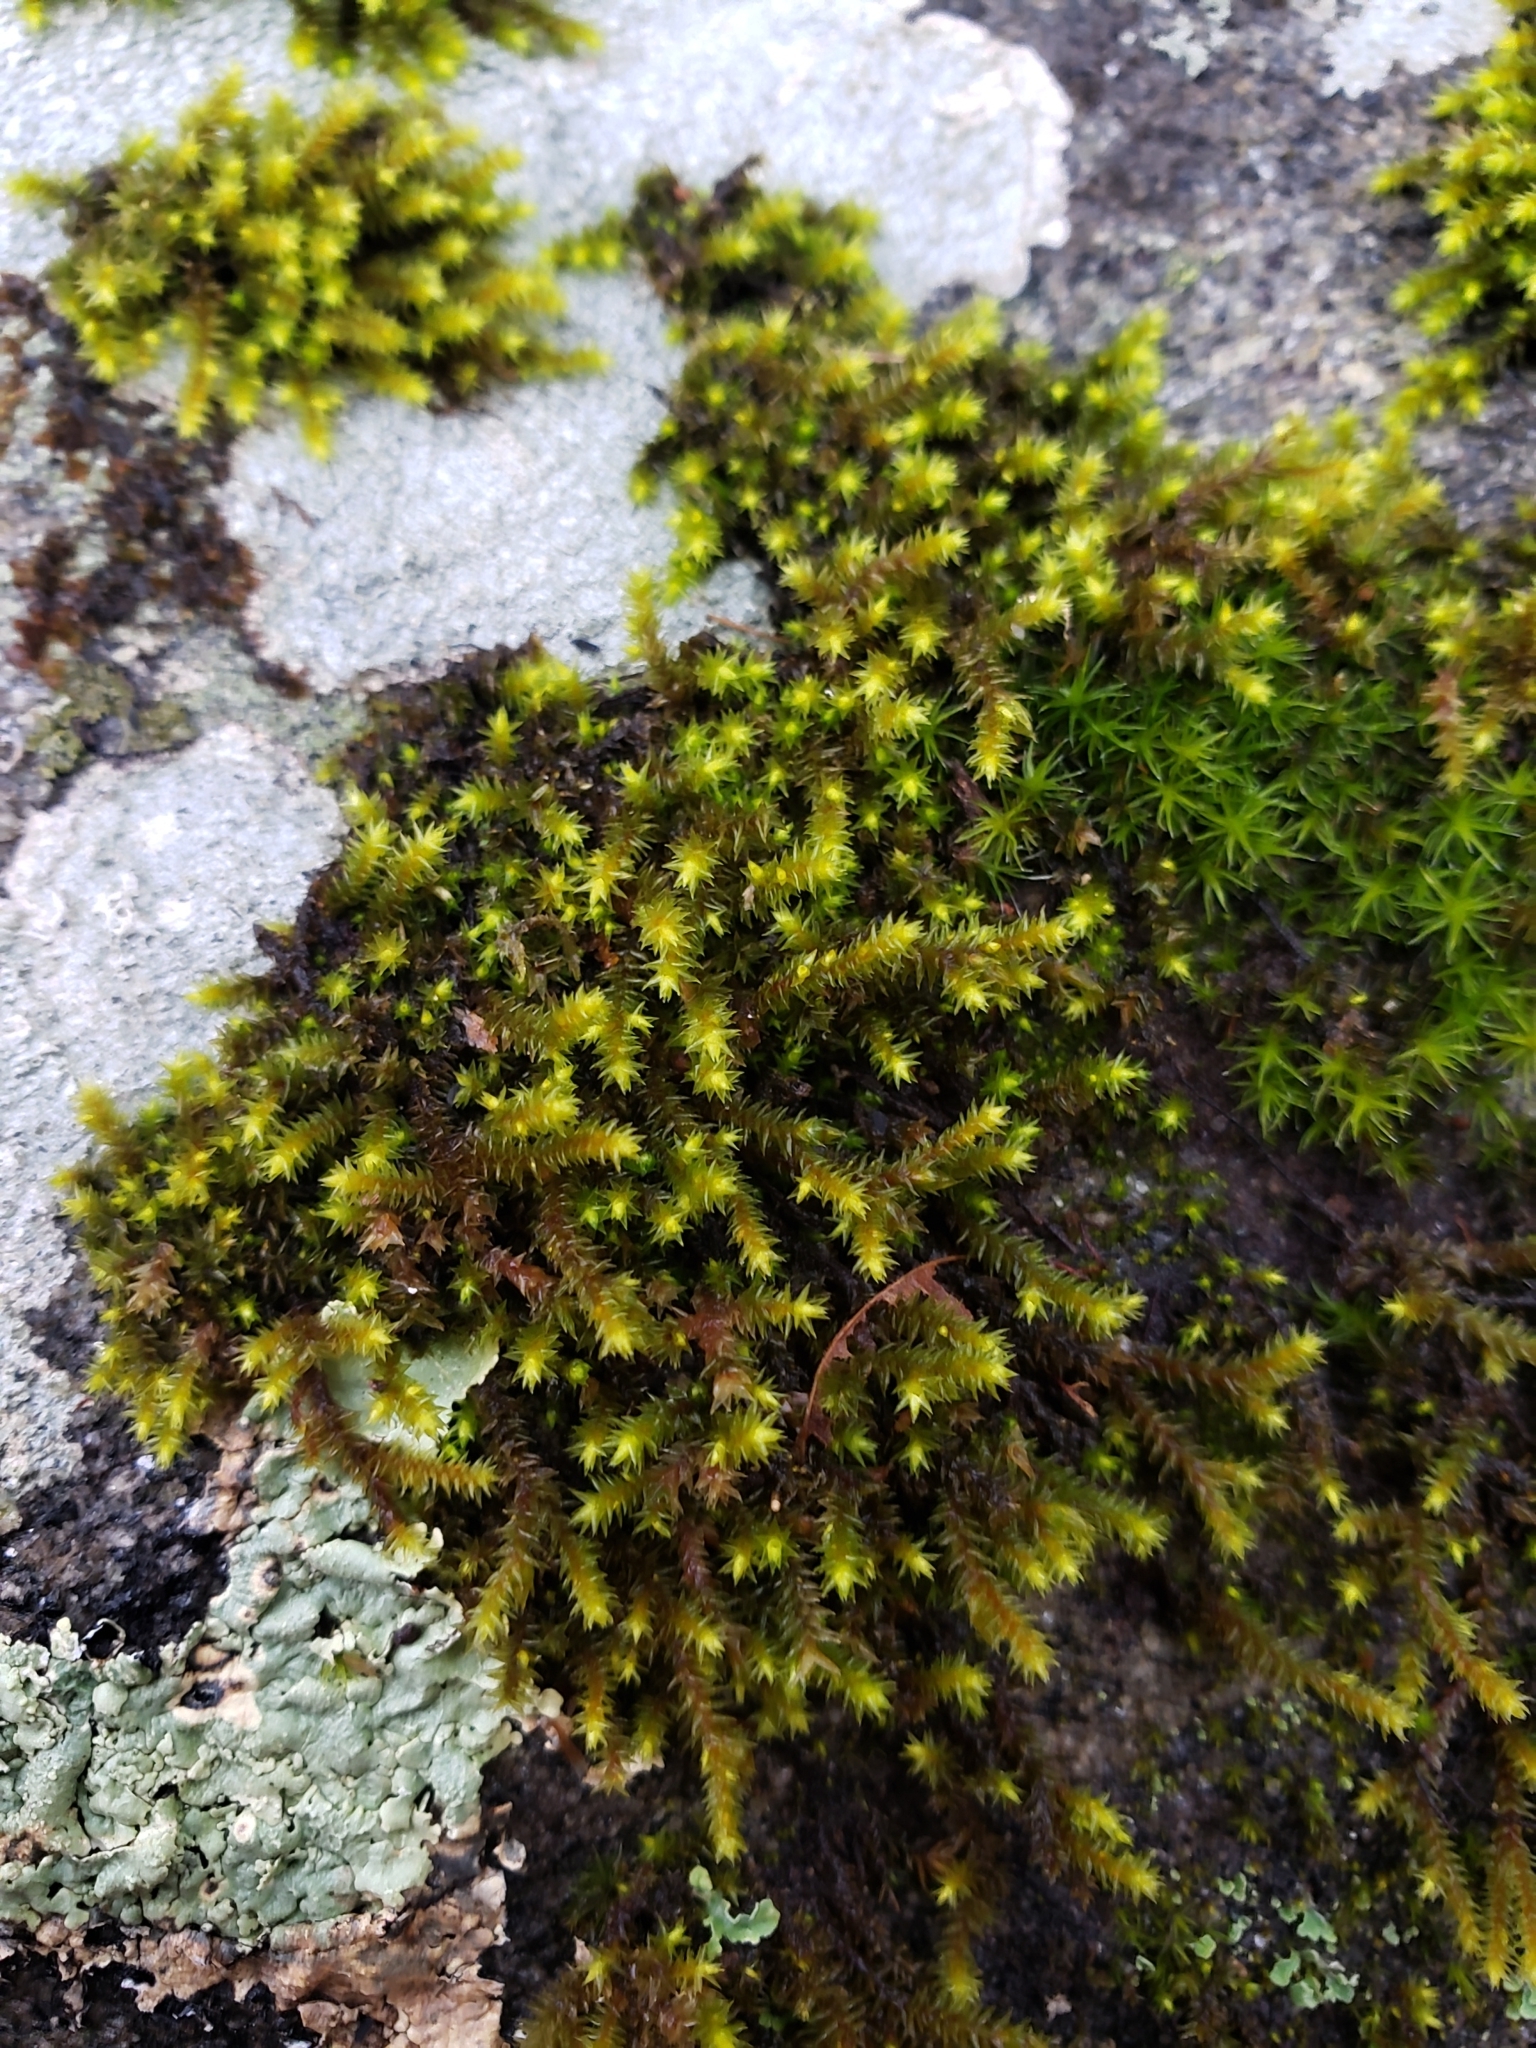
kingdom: Plantae
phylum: Bryophyta
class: Bryopsida
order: Hedwigiales
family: Hedwigiaceae
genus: Hedwigia
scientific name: Hedwigia ciliata
